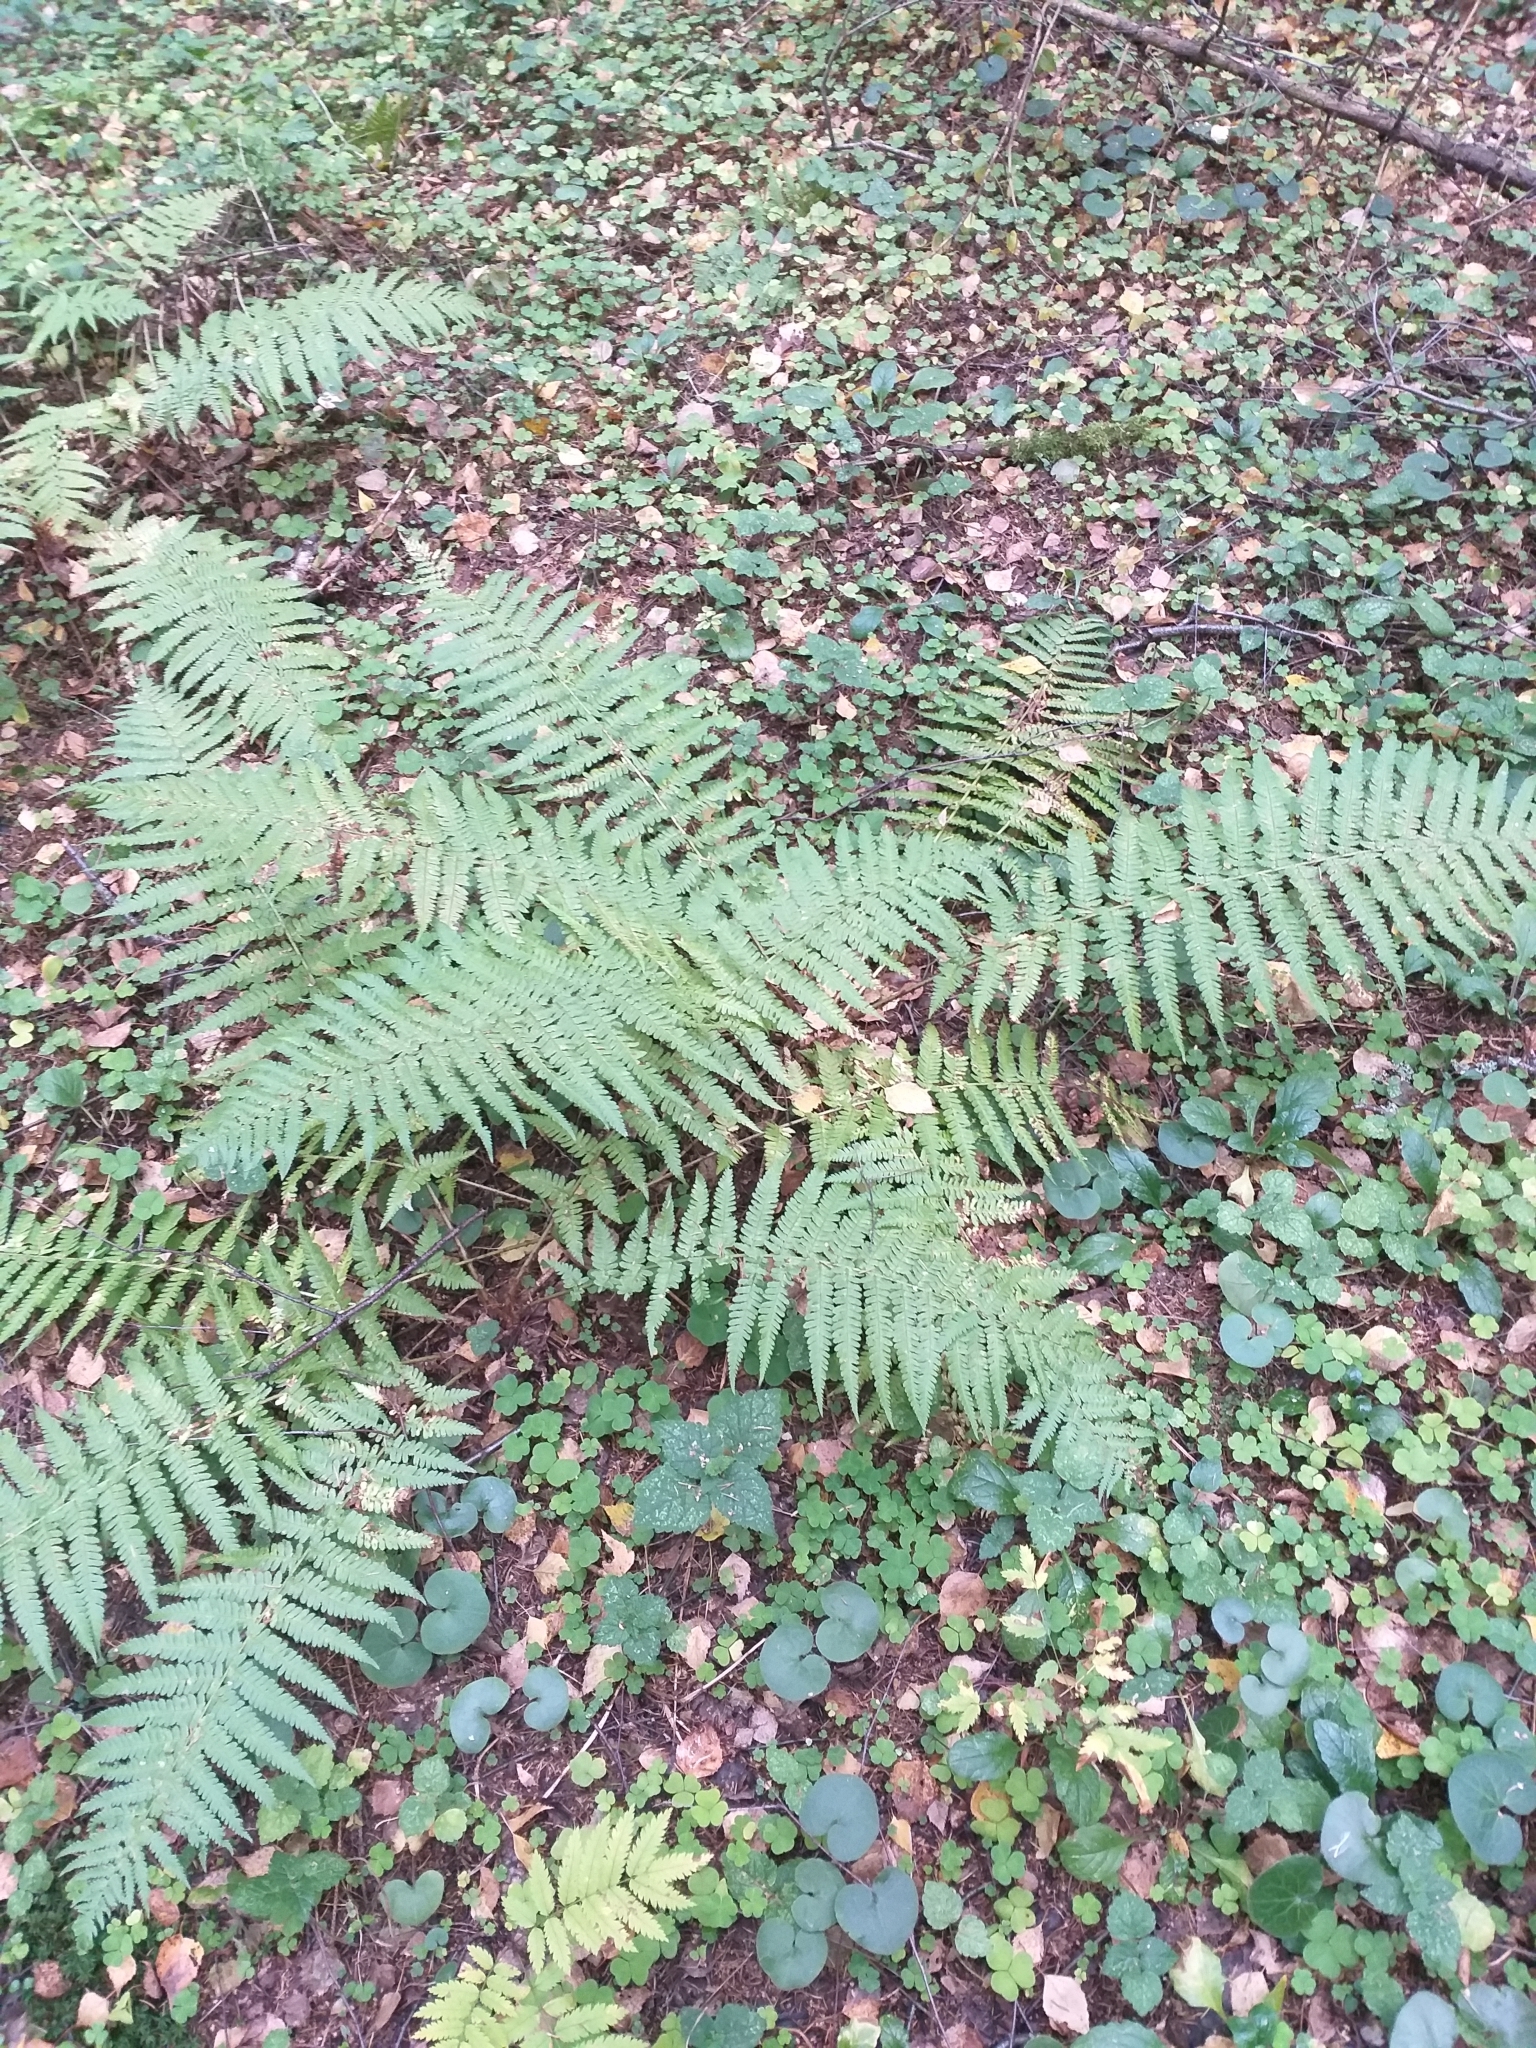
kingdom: Plantae
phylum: Tracheophyta
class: Polypodiopsida
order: Polypodiales
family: Dryopteridaceae
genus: Dryopteris
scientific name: Dryopteris filix-mas
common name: Male fern
